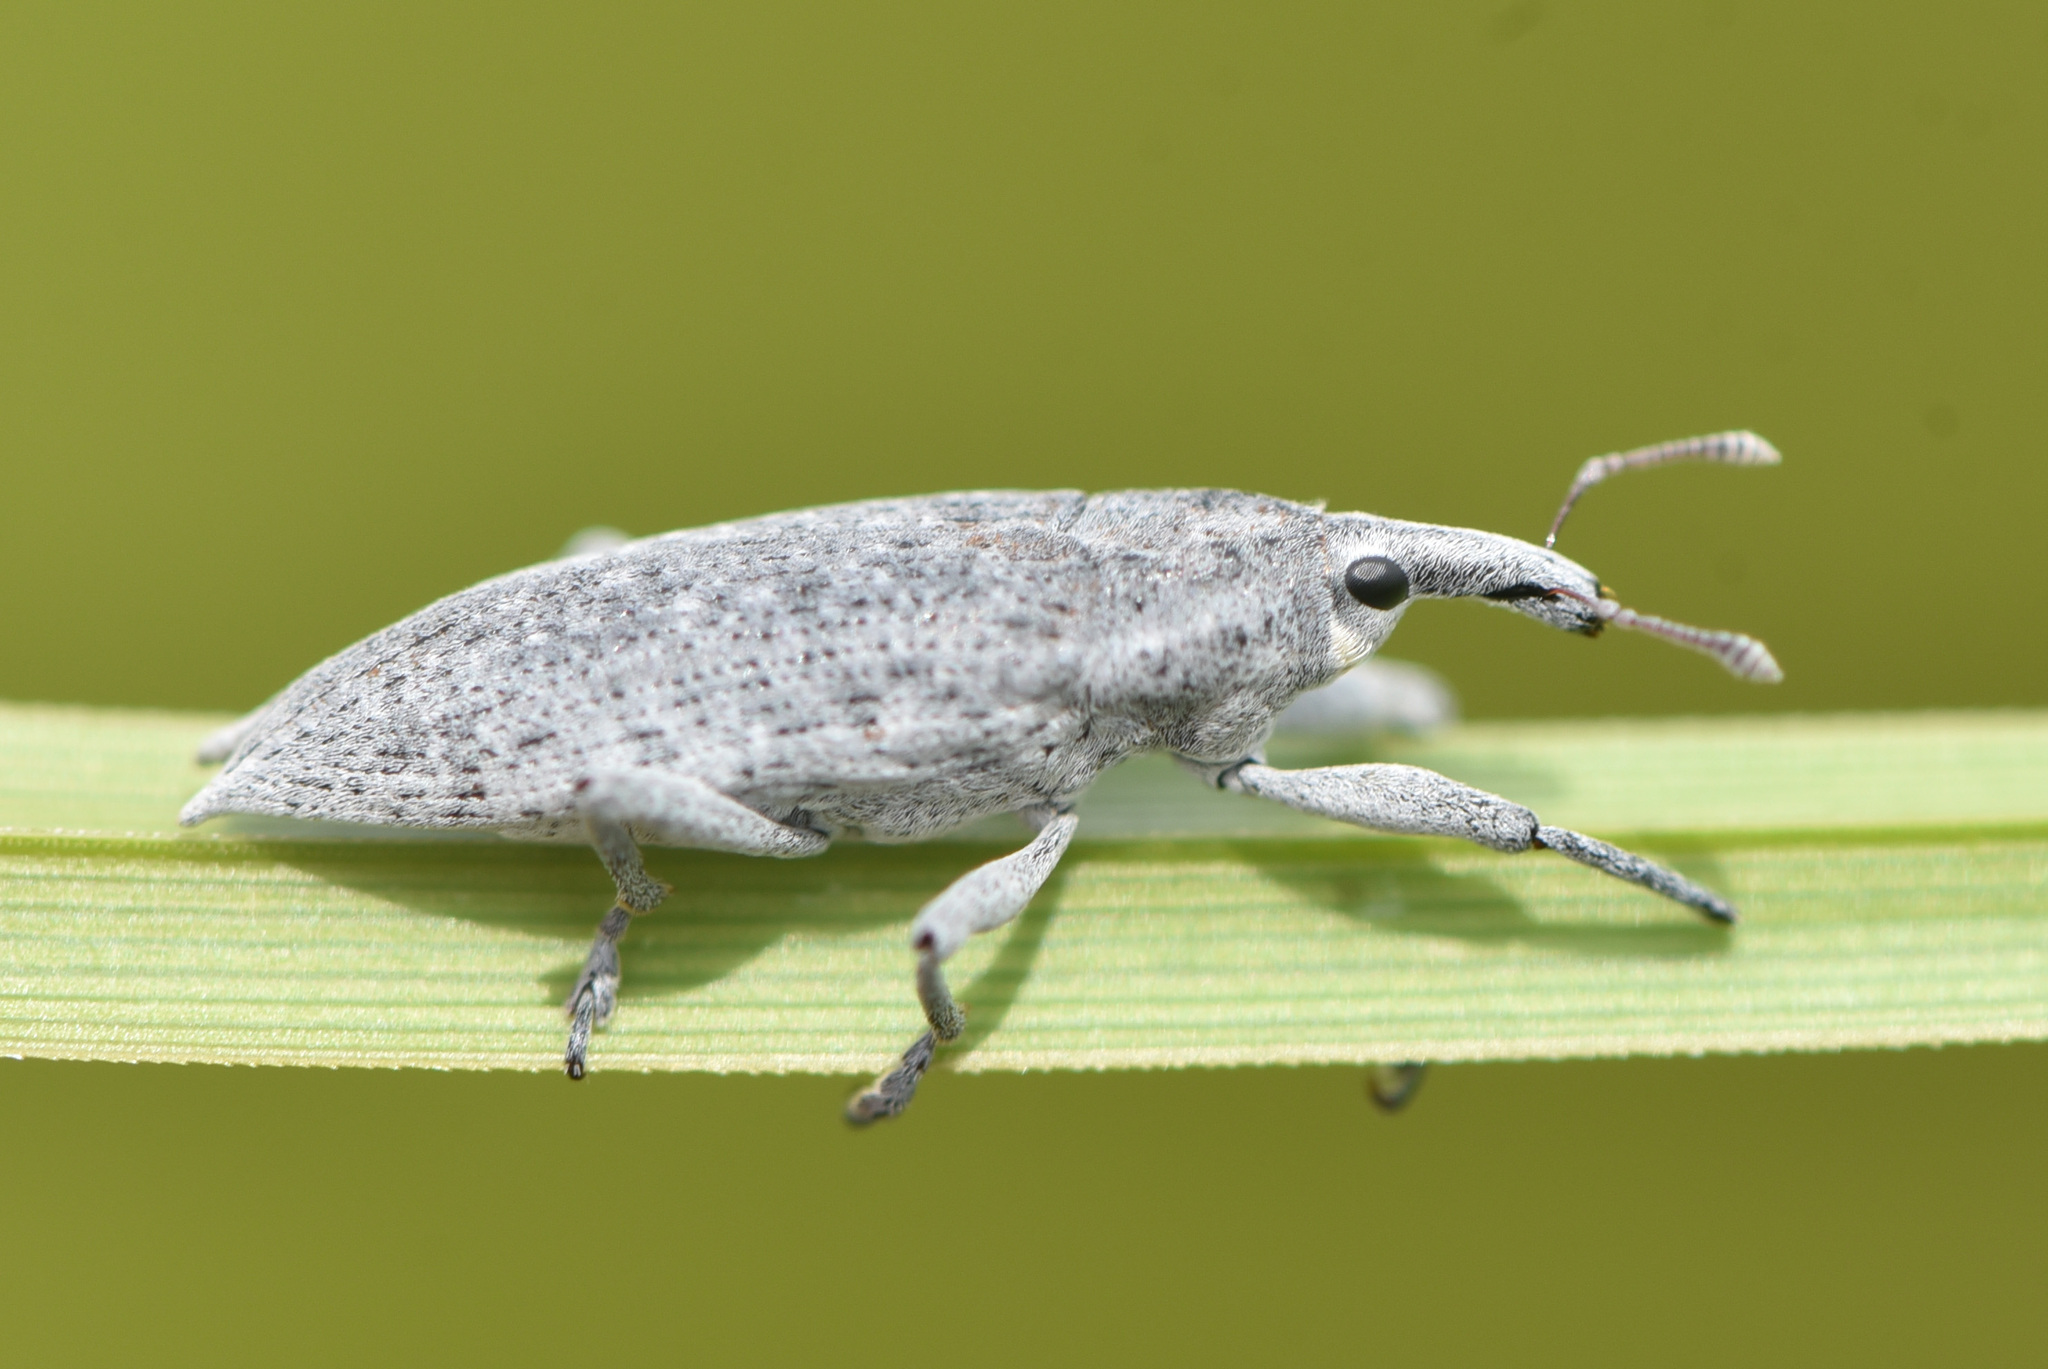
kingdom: Animalia
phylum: Arthropoda
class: Insecta
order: Coleoptera
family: Curculionidae
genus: Lixus
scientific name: Lixus caudifer
